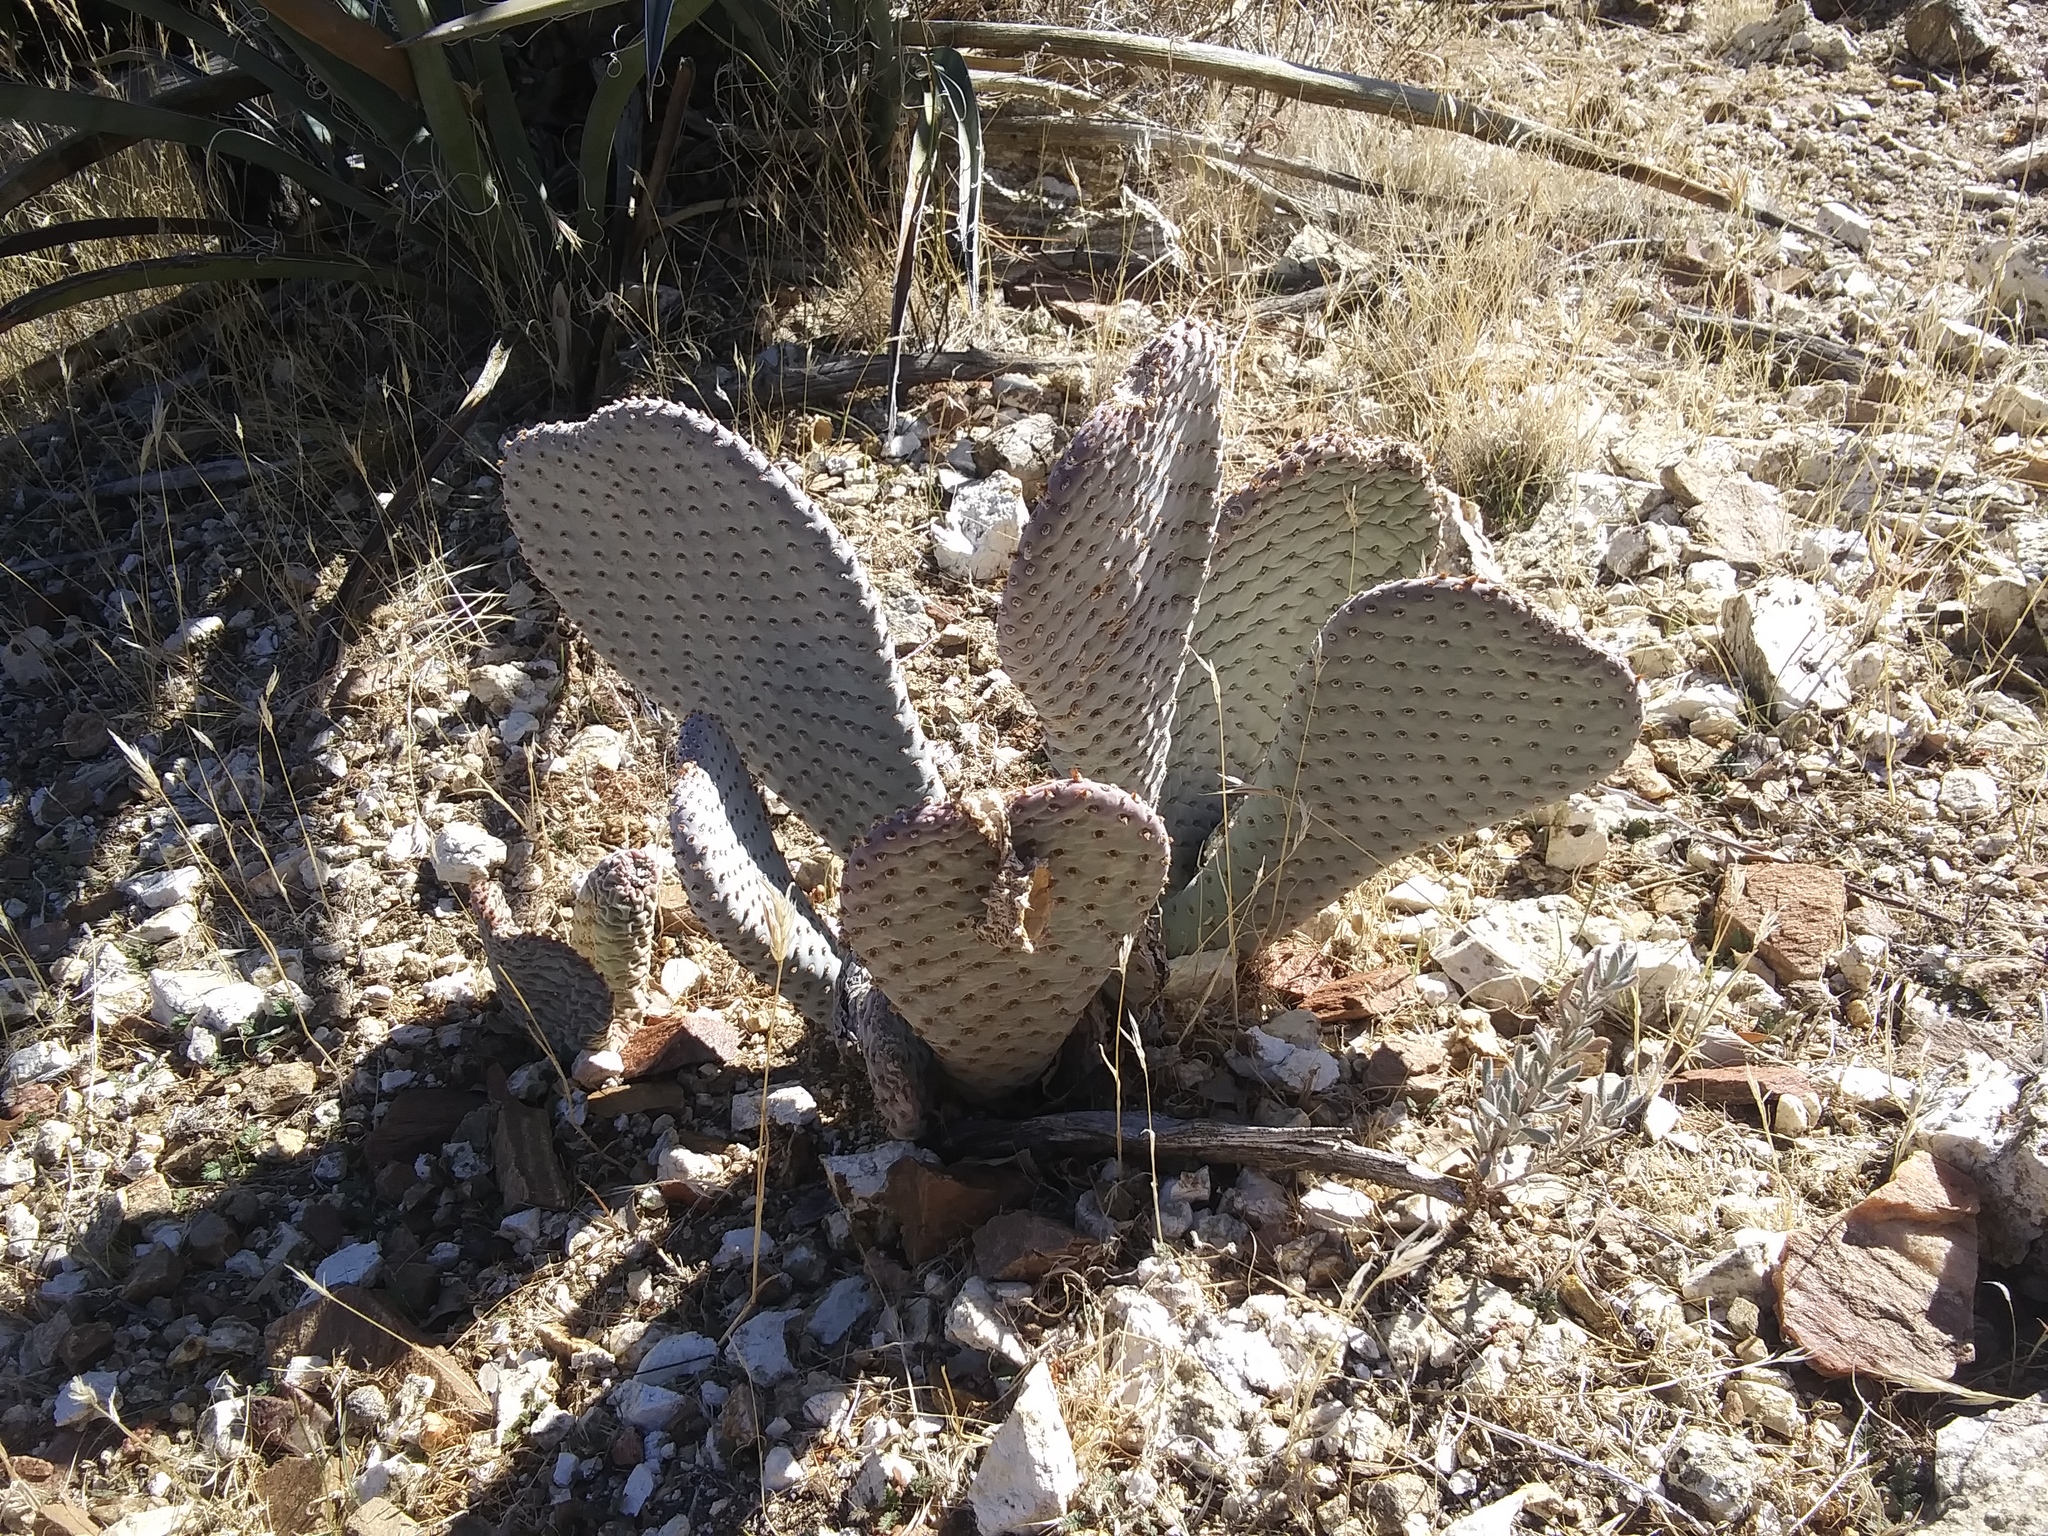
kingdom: Plantae
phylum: Tracheophyta
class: Magnoliopsida
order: Caryophyllales
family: Cactaceae
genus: Opuntia
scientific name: Opuntia basilaris
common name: Beavertail prickly-pear
